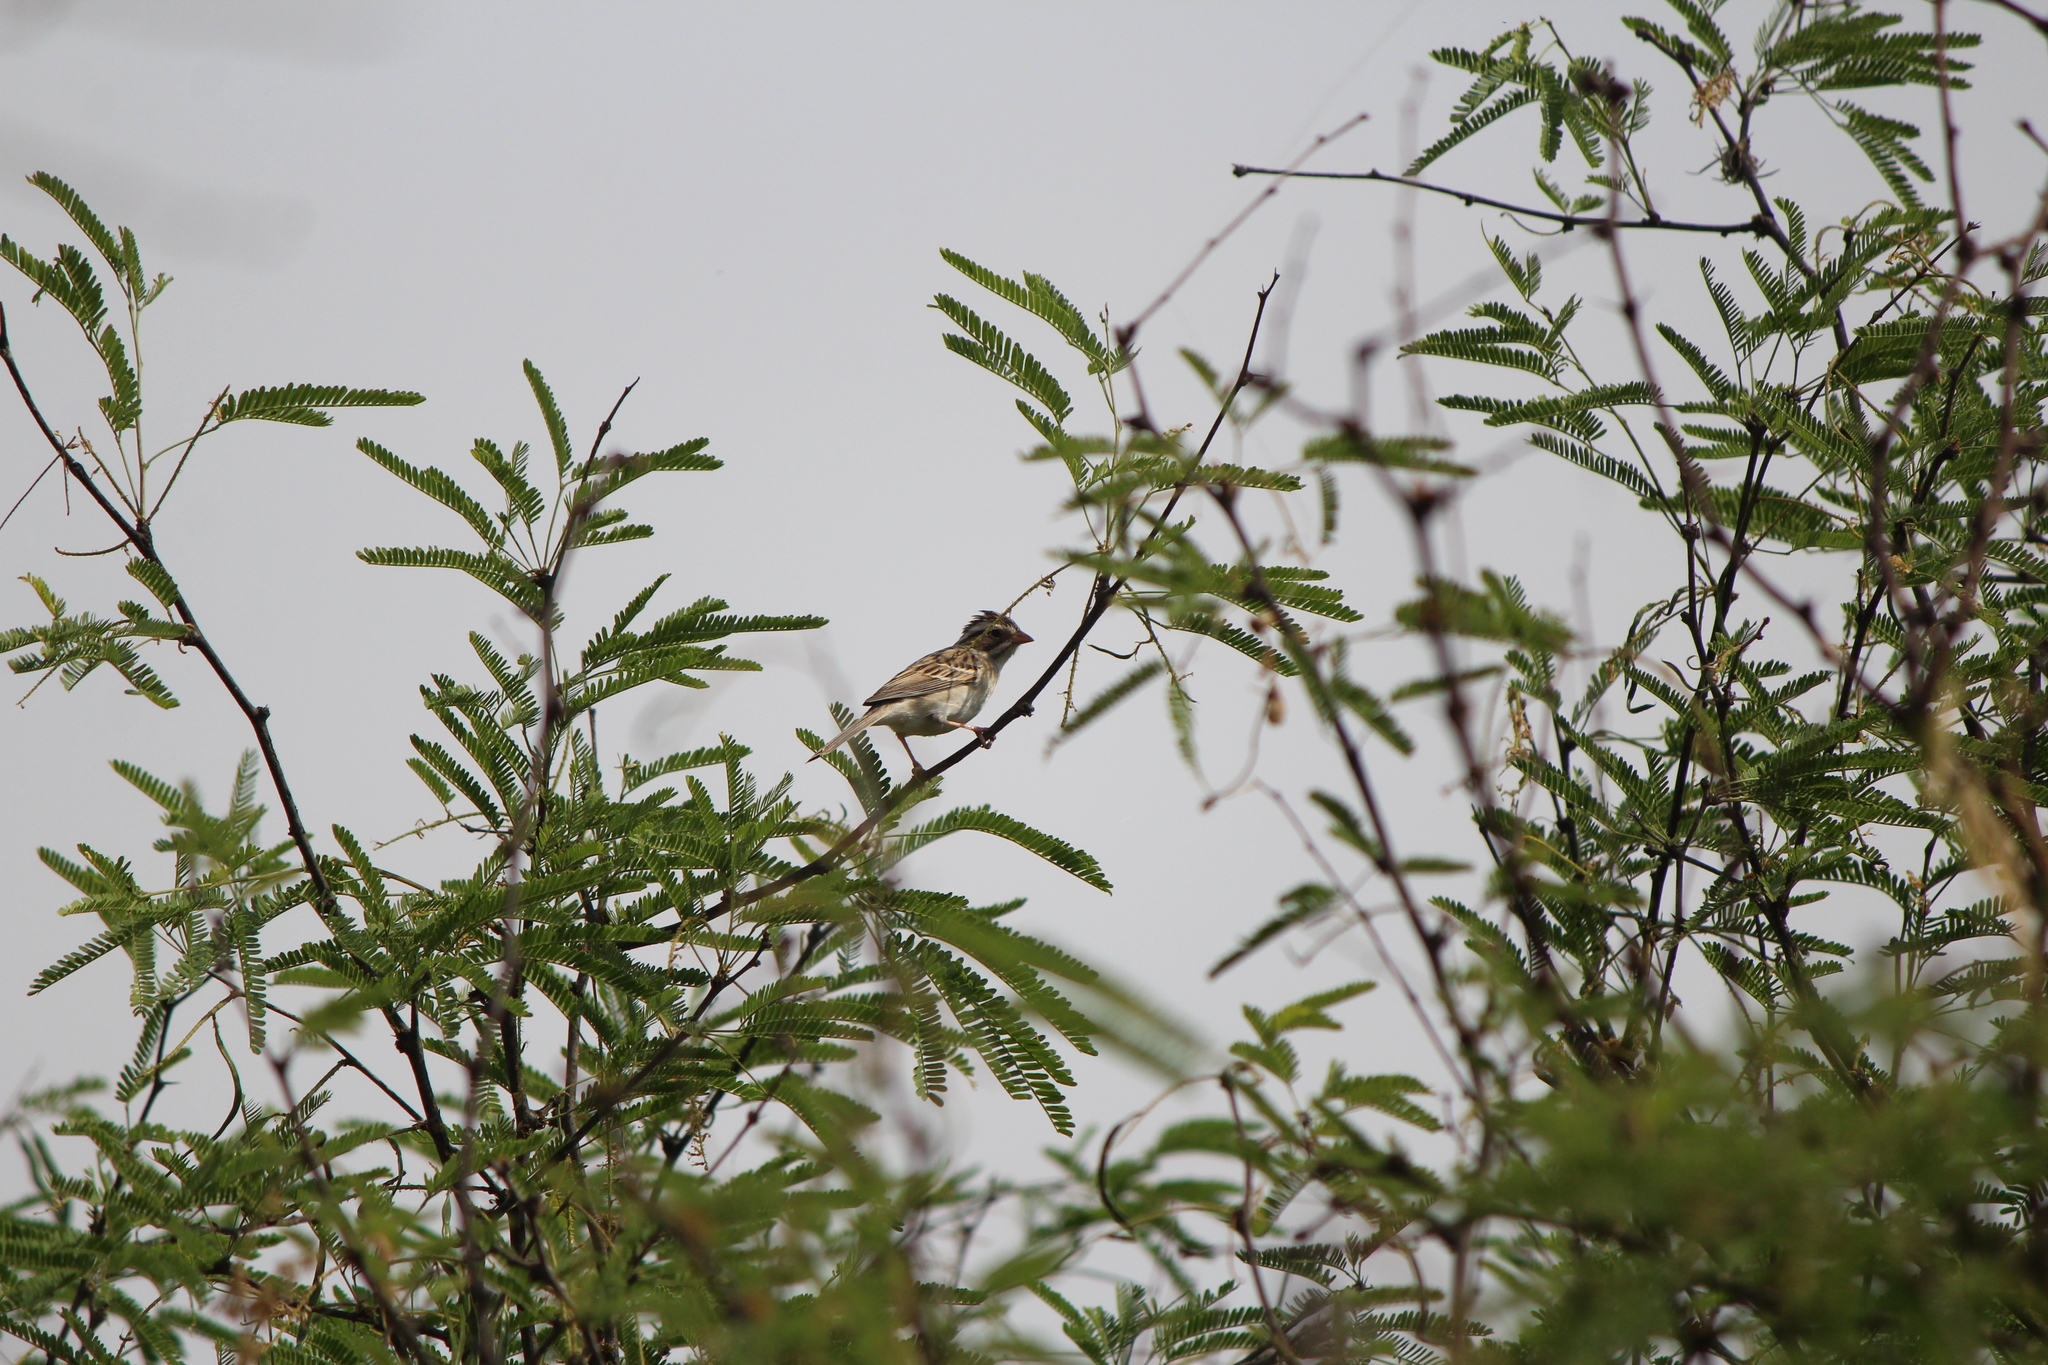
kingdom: Animalia
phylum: Chordata
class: Aves
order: Passeriformes
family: Passerellidae
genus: Spizella
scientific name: Spizella pallida
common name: Clay-colored sparrow
